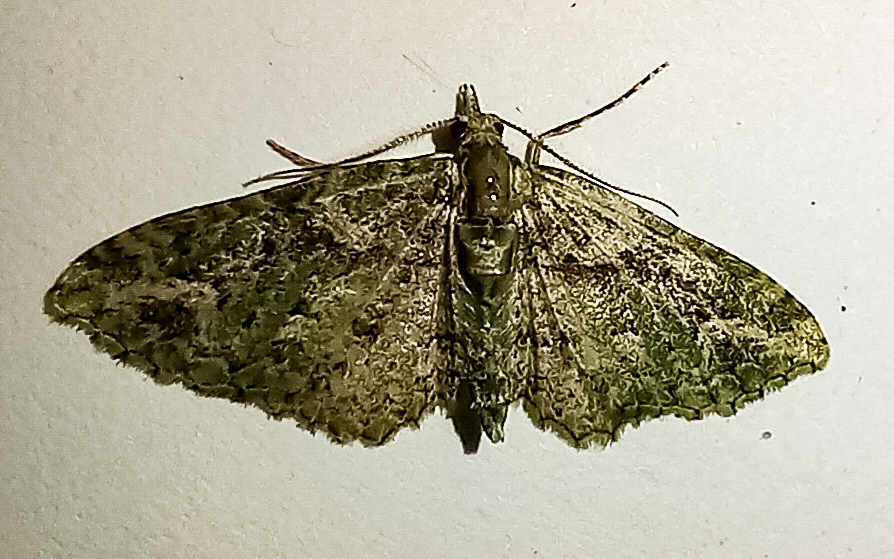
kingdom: Animalia
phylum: Arthropoda
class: Insecta
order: Lepidoptera
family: Geometridae
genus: Pasiphila
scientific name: Pasiphila muscosata
